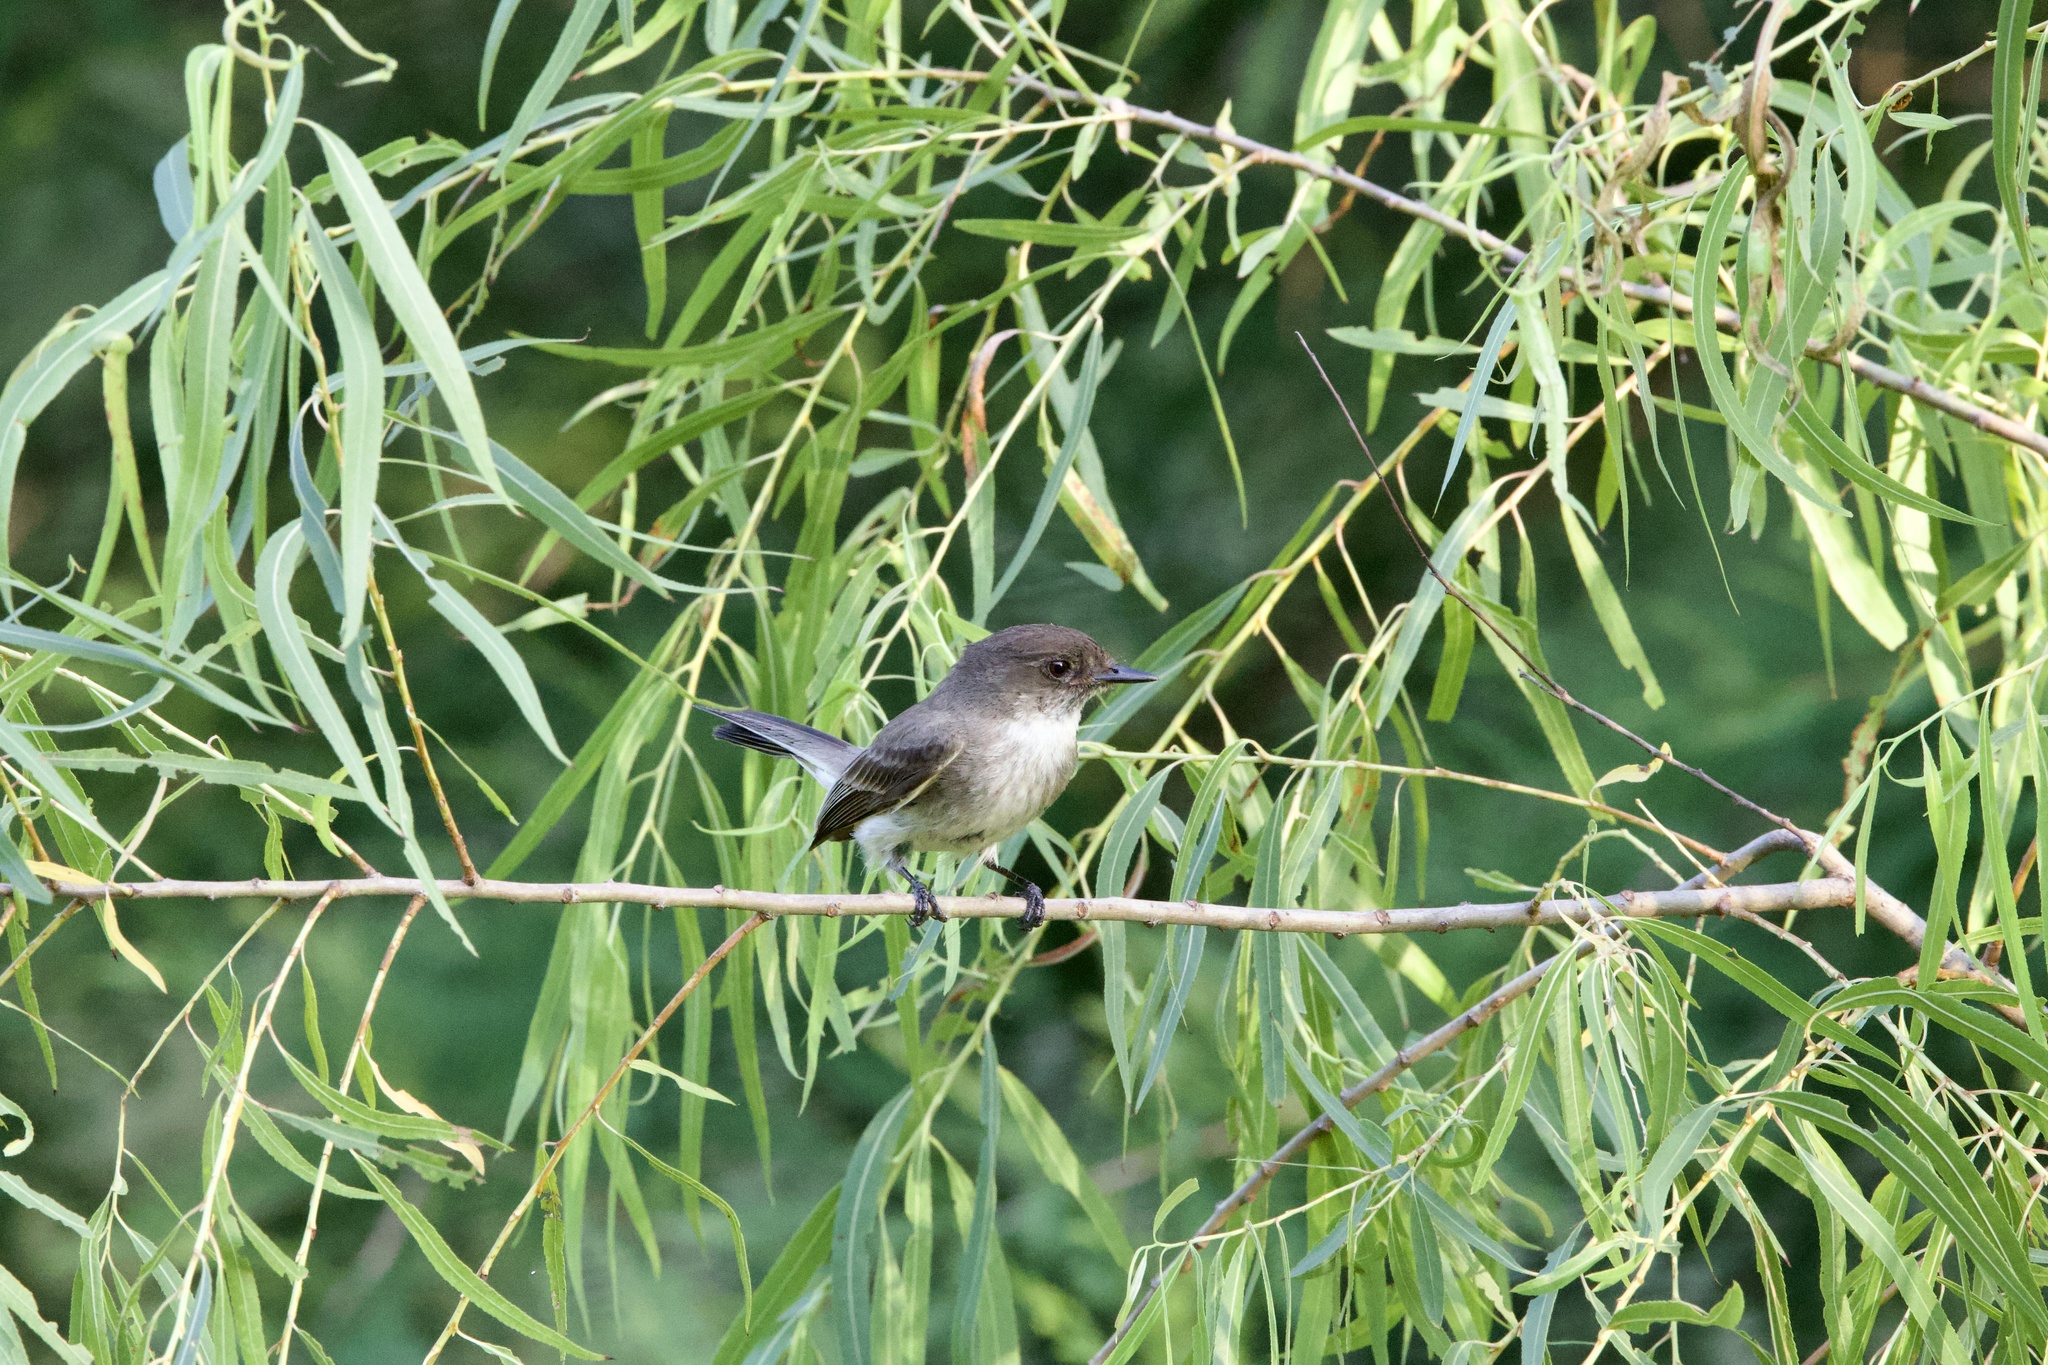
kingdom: Animalia
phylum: Chordata
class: Aves
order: Passeriformes
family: Tyrannidae
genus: Sayornis
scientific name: Sayornis phoebe
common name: Eastern phoebe
